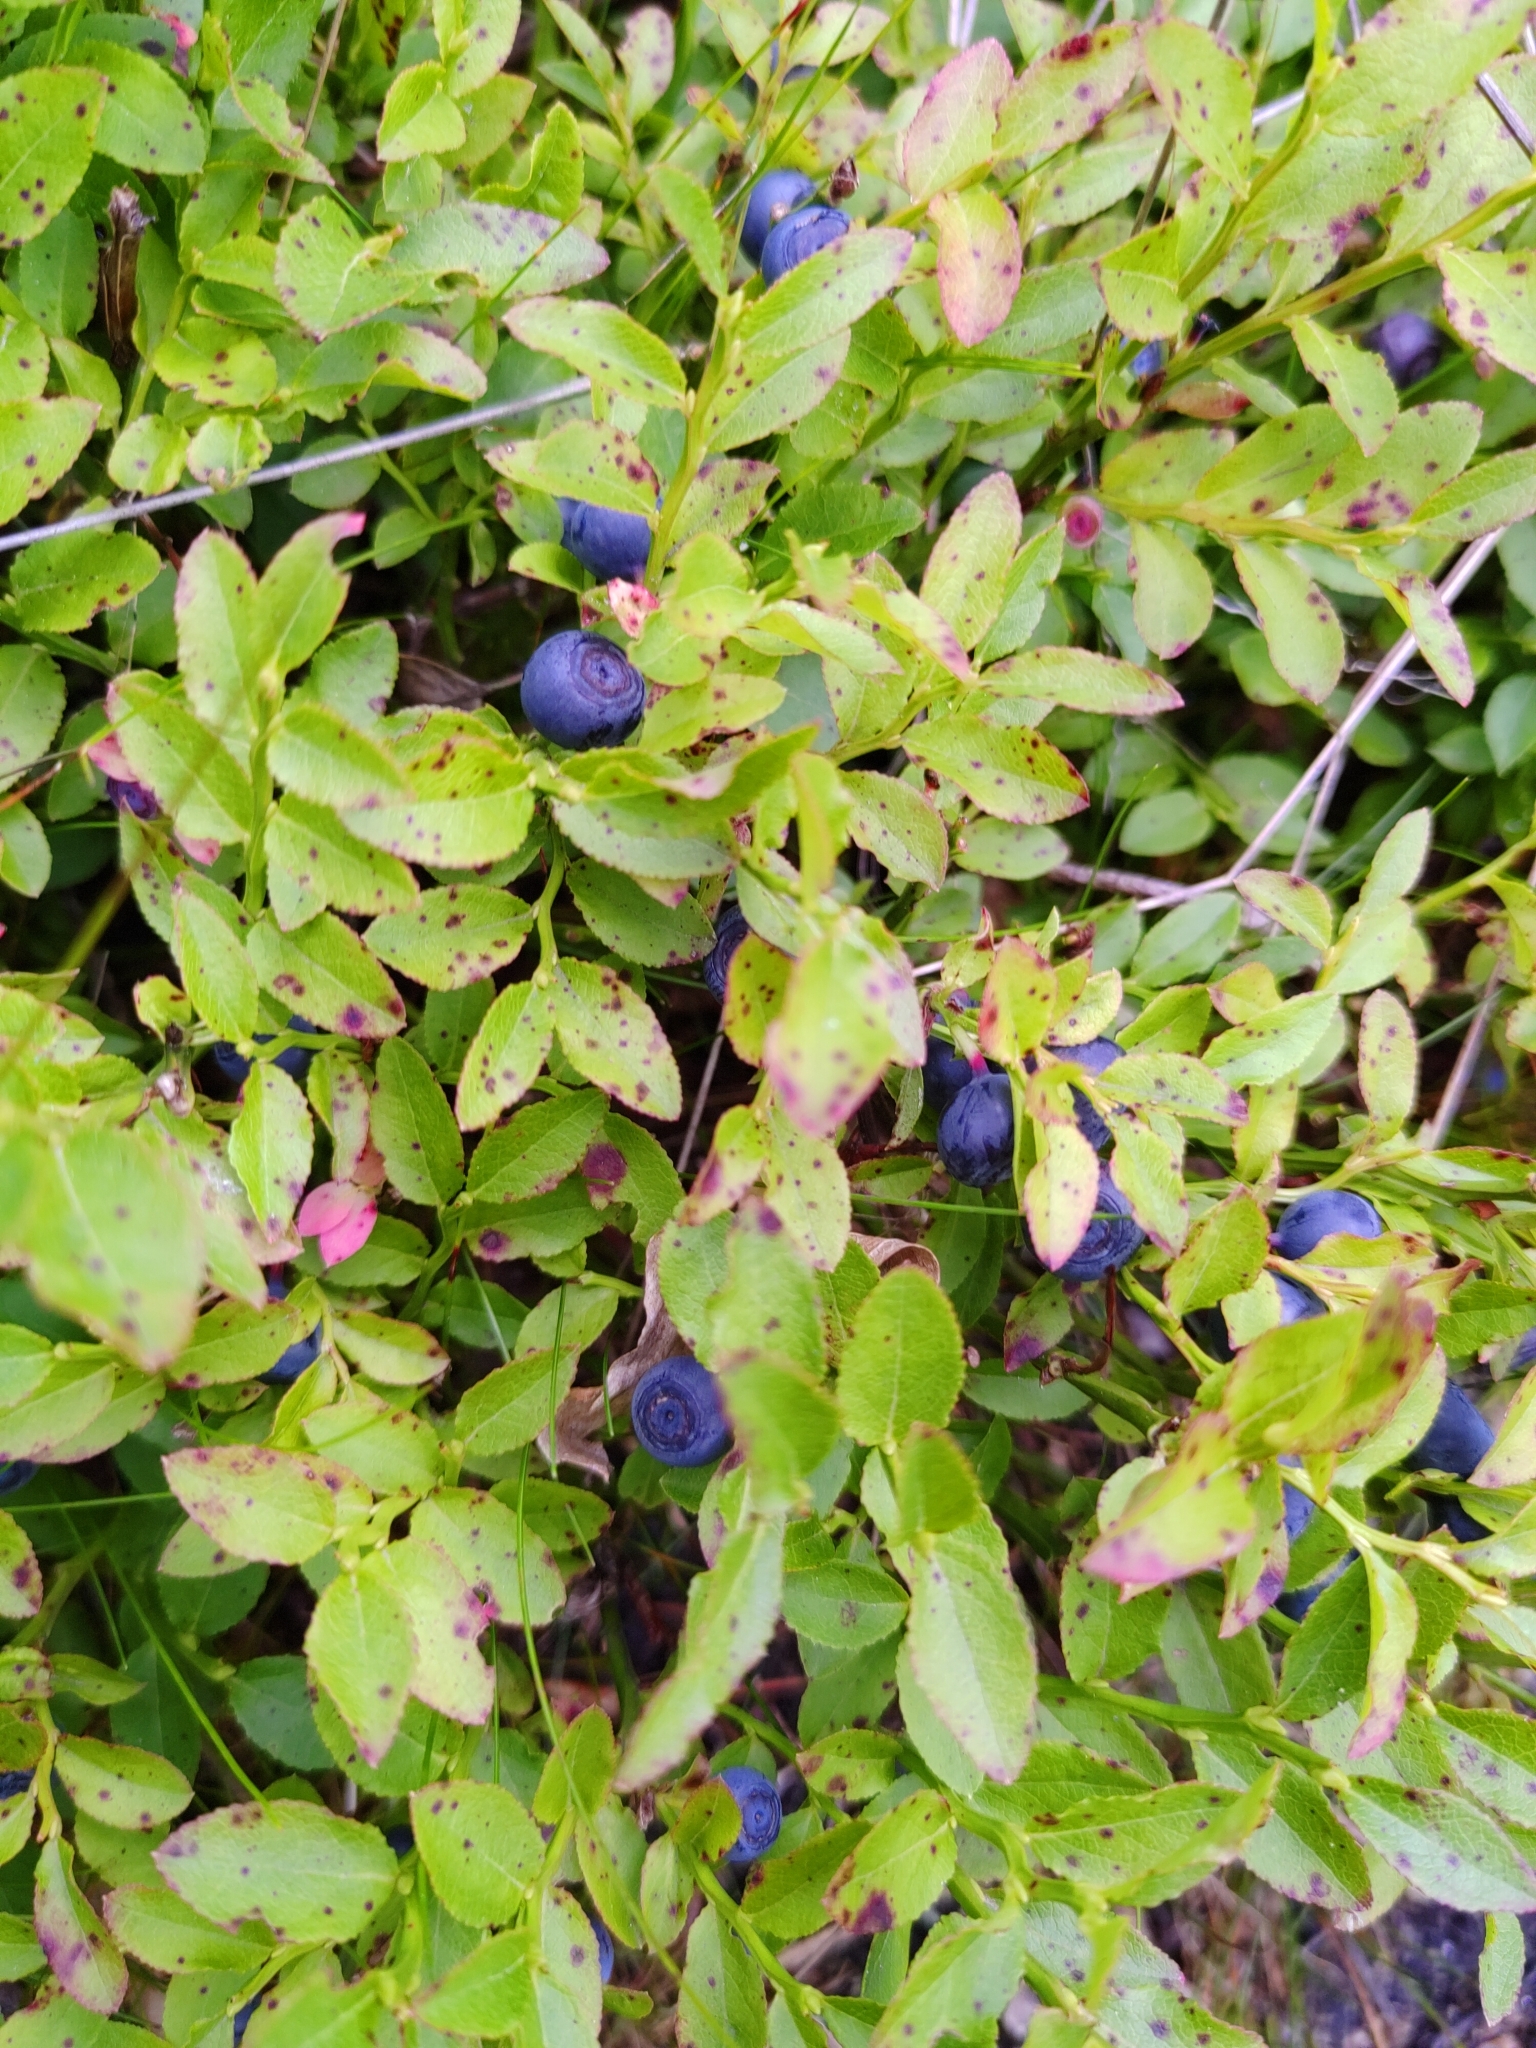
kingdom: Plantae
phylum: Tracheophyta
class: Magnoliopsida
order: Ericales
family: Ericaceae
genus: Vaccinium
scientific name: Vaccinium myrtillus
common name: Bilberry
